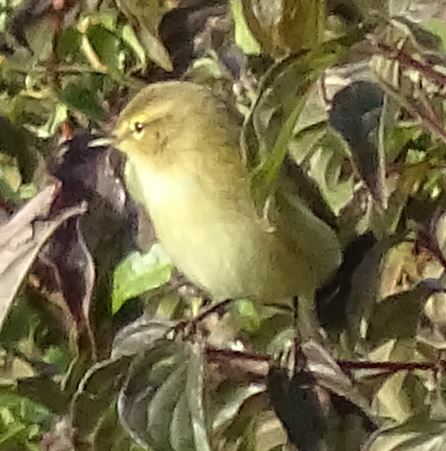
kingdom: Animalia
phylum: Chordata
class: Aves
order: Passeriformes
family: Phylloscopidae
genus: Phylloscopus
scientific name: Phylloscopus collybita
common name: Common chiffchaff
